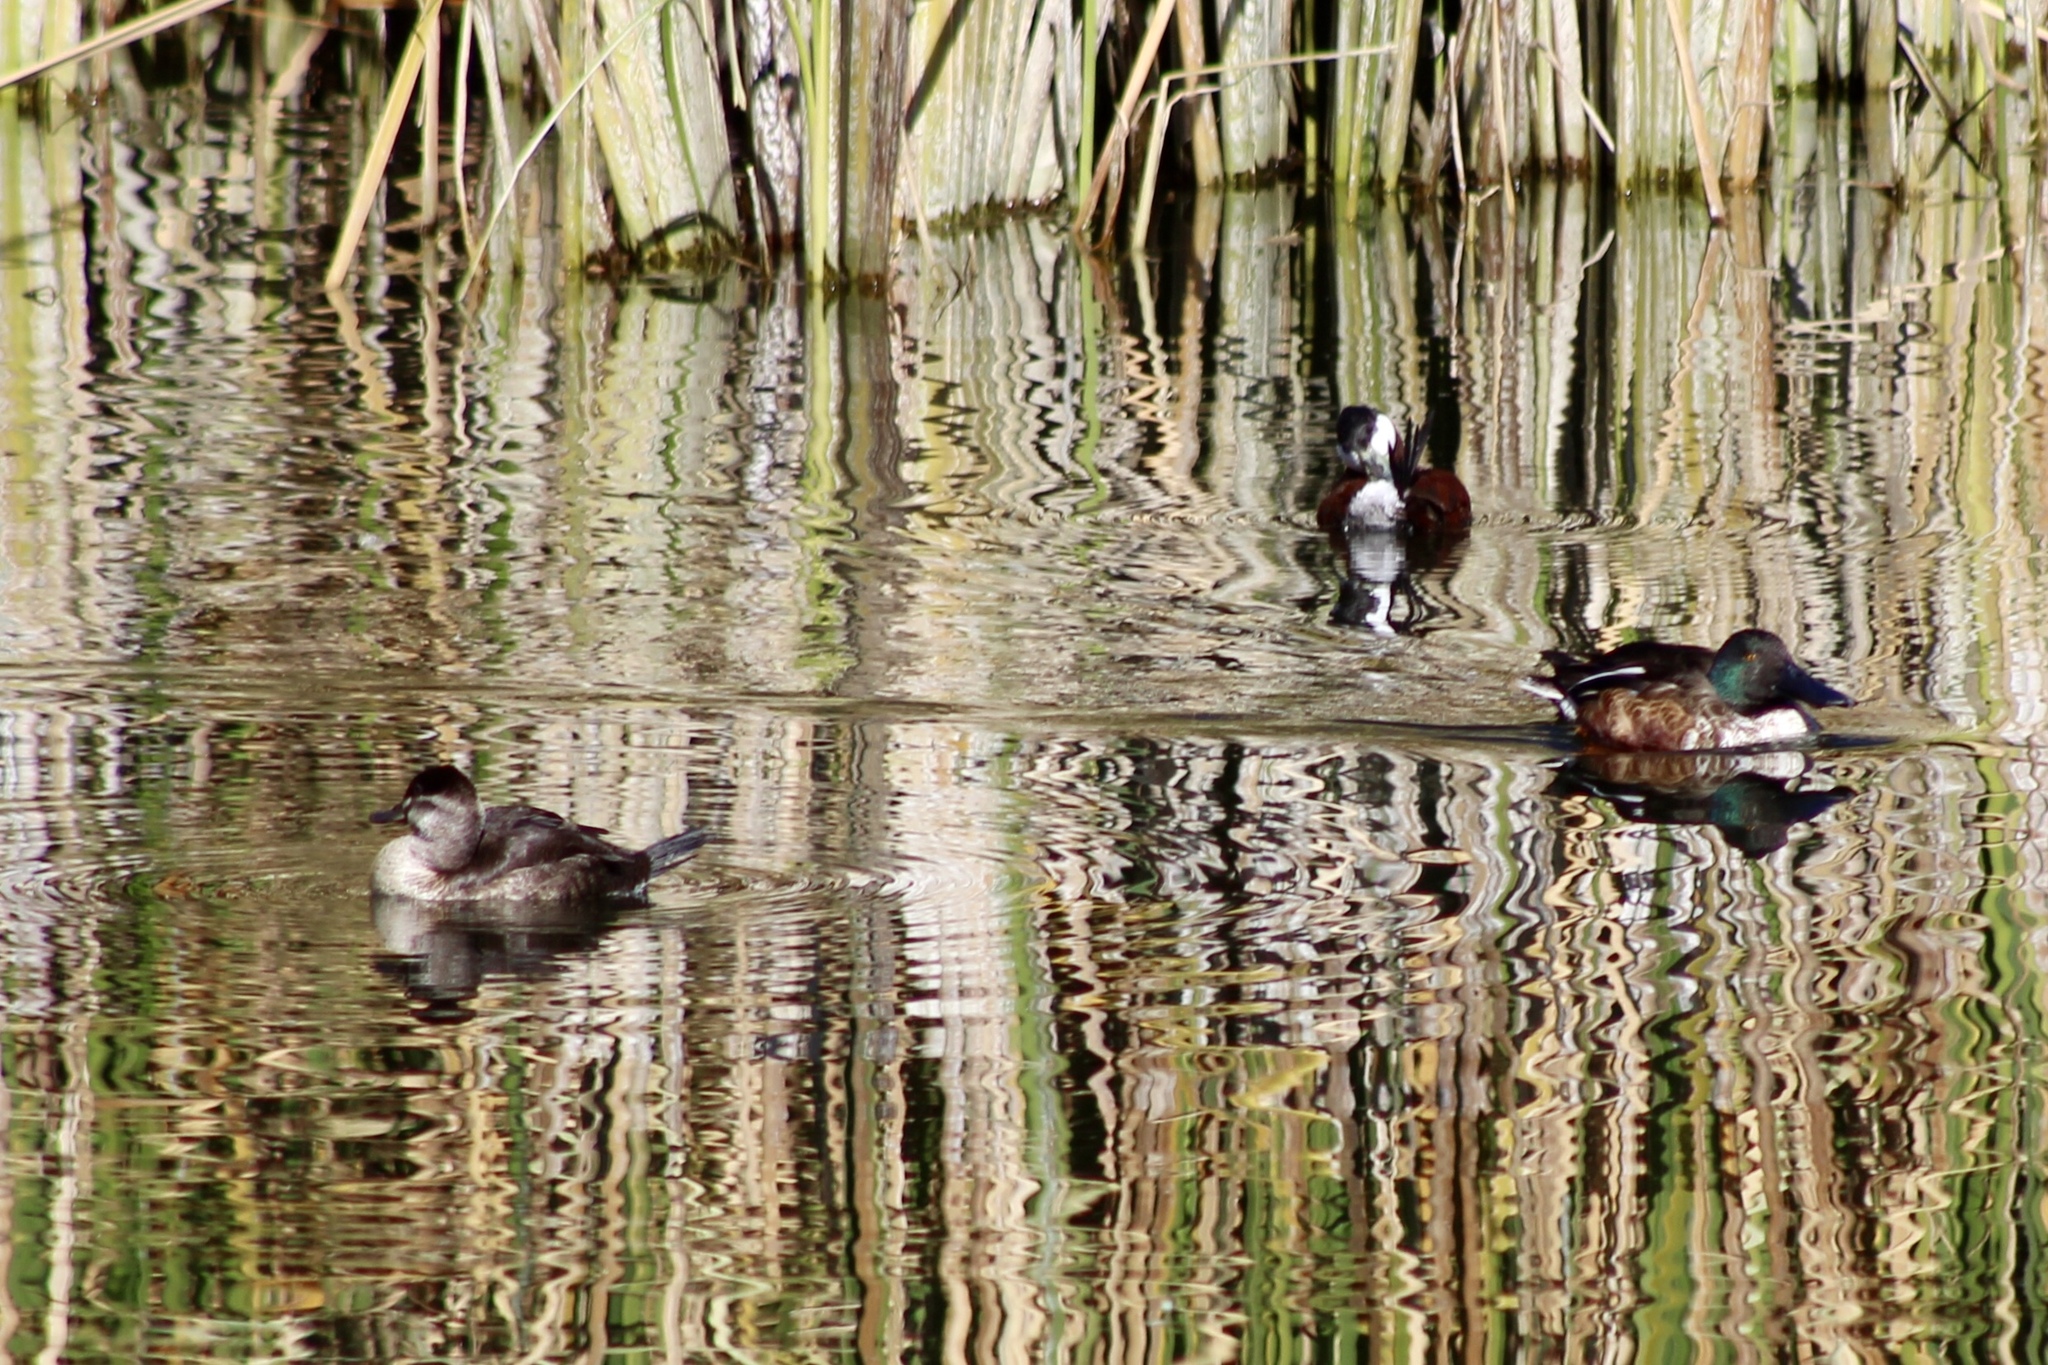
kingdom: Animalia
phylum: Chordata
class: Aves
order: Anseriformes
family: Anatidae
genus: Oxyura
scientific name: Oxyura jamaicensis
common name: Ruddy duck
